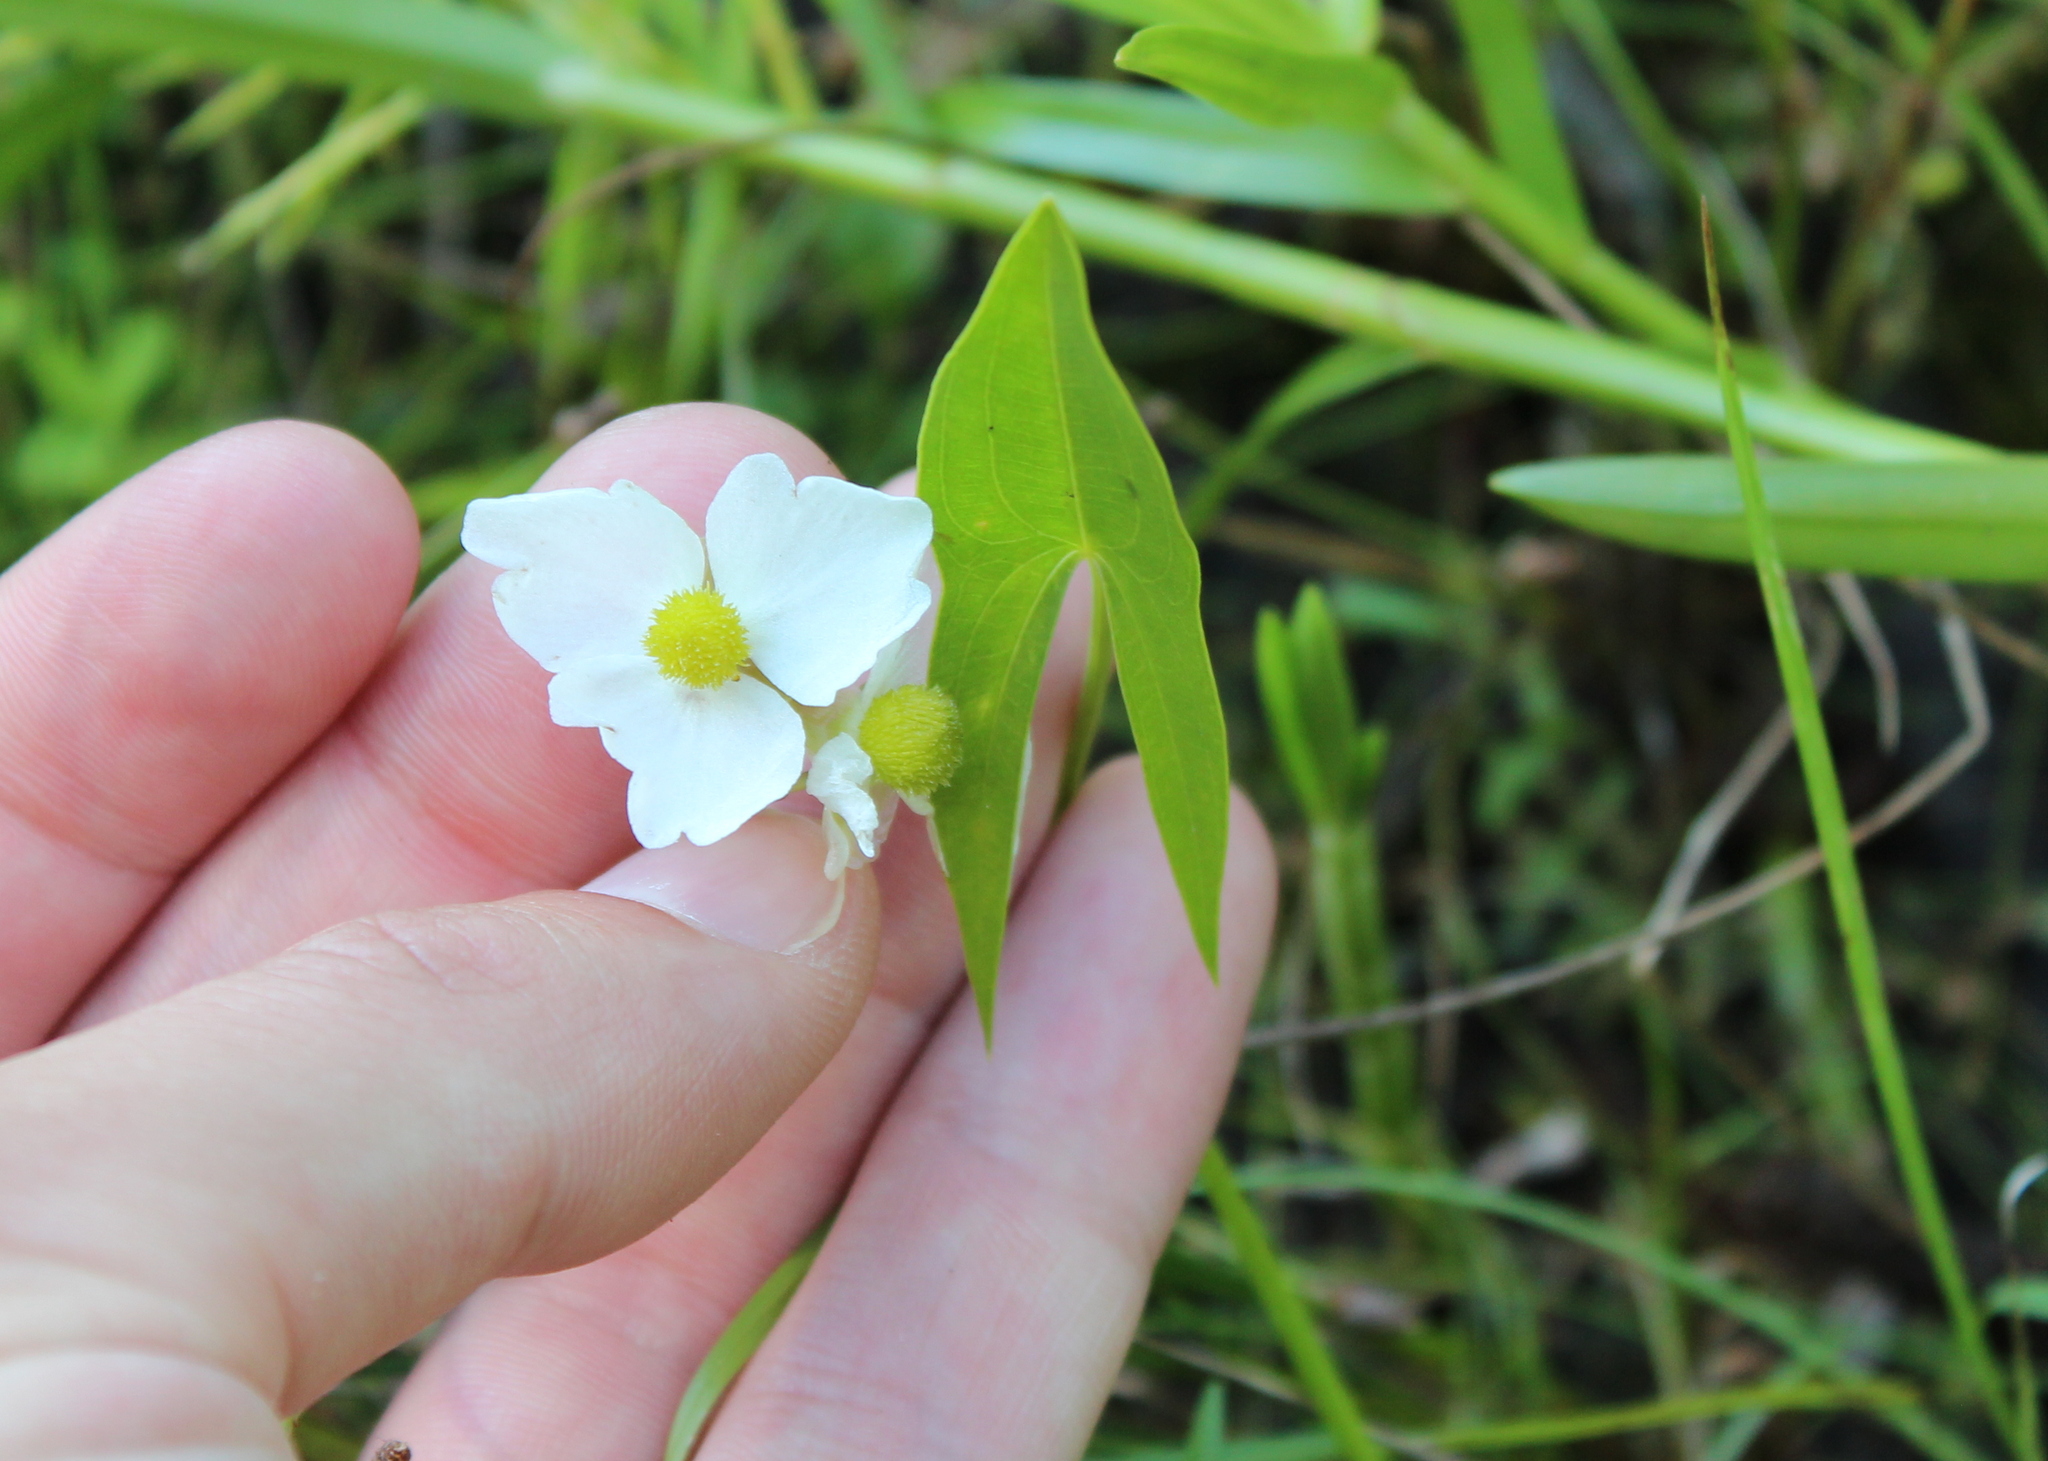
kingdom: Plantae
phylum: Tracheophyta
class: Liliopsida
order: Alismatales
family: Alismataceae
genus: Sagittaria
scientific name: Sagittaria latifolia
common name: Duck-potato
